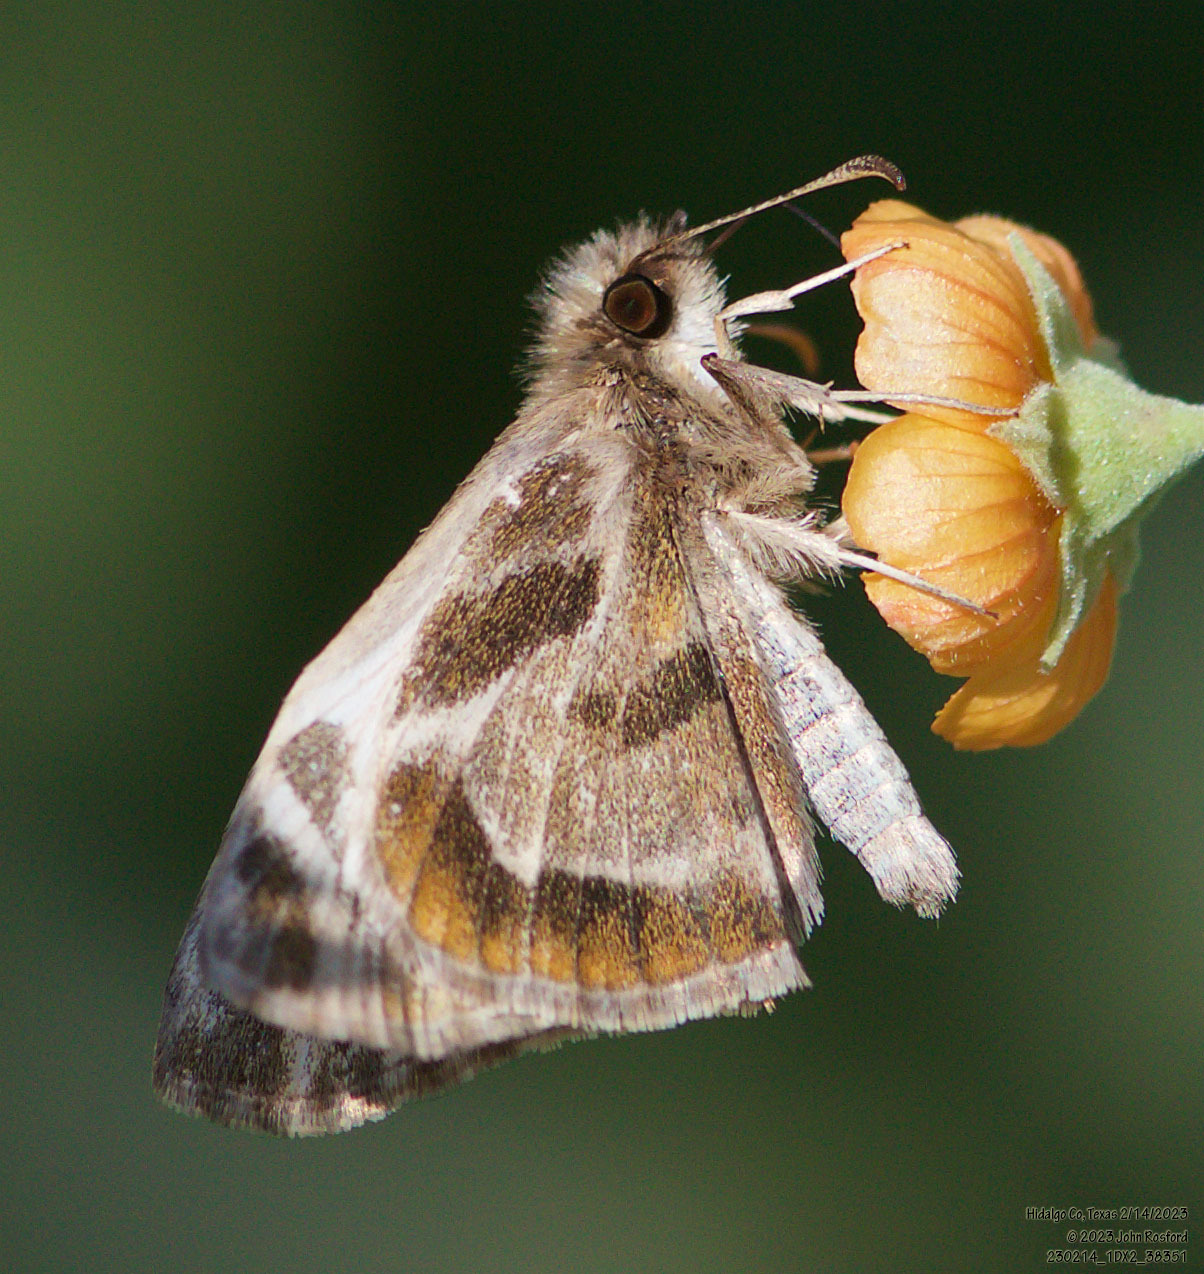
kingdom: Animalia
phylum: Arthropoda
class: Insecta
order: Lepidoptera
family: Hesperiidae
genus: Heliopetes
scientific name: Heliopetes macaira
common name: Turk's-cap white-skipper
